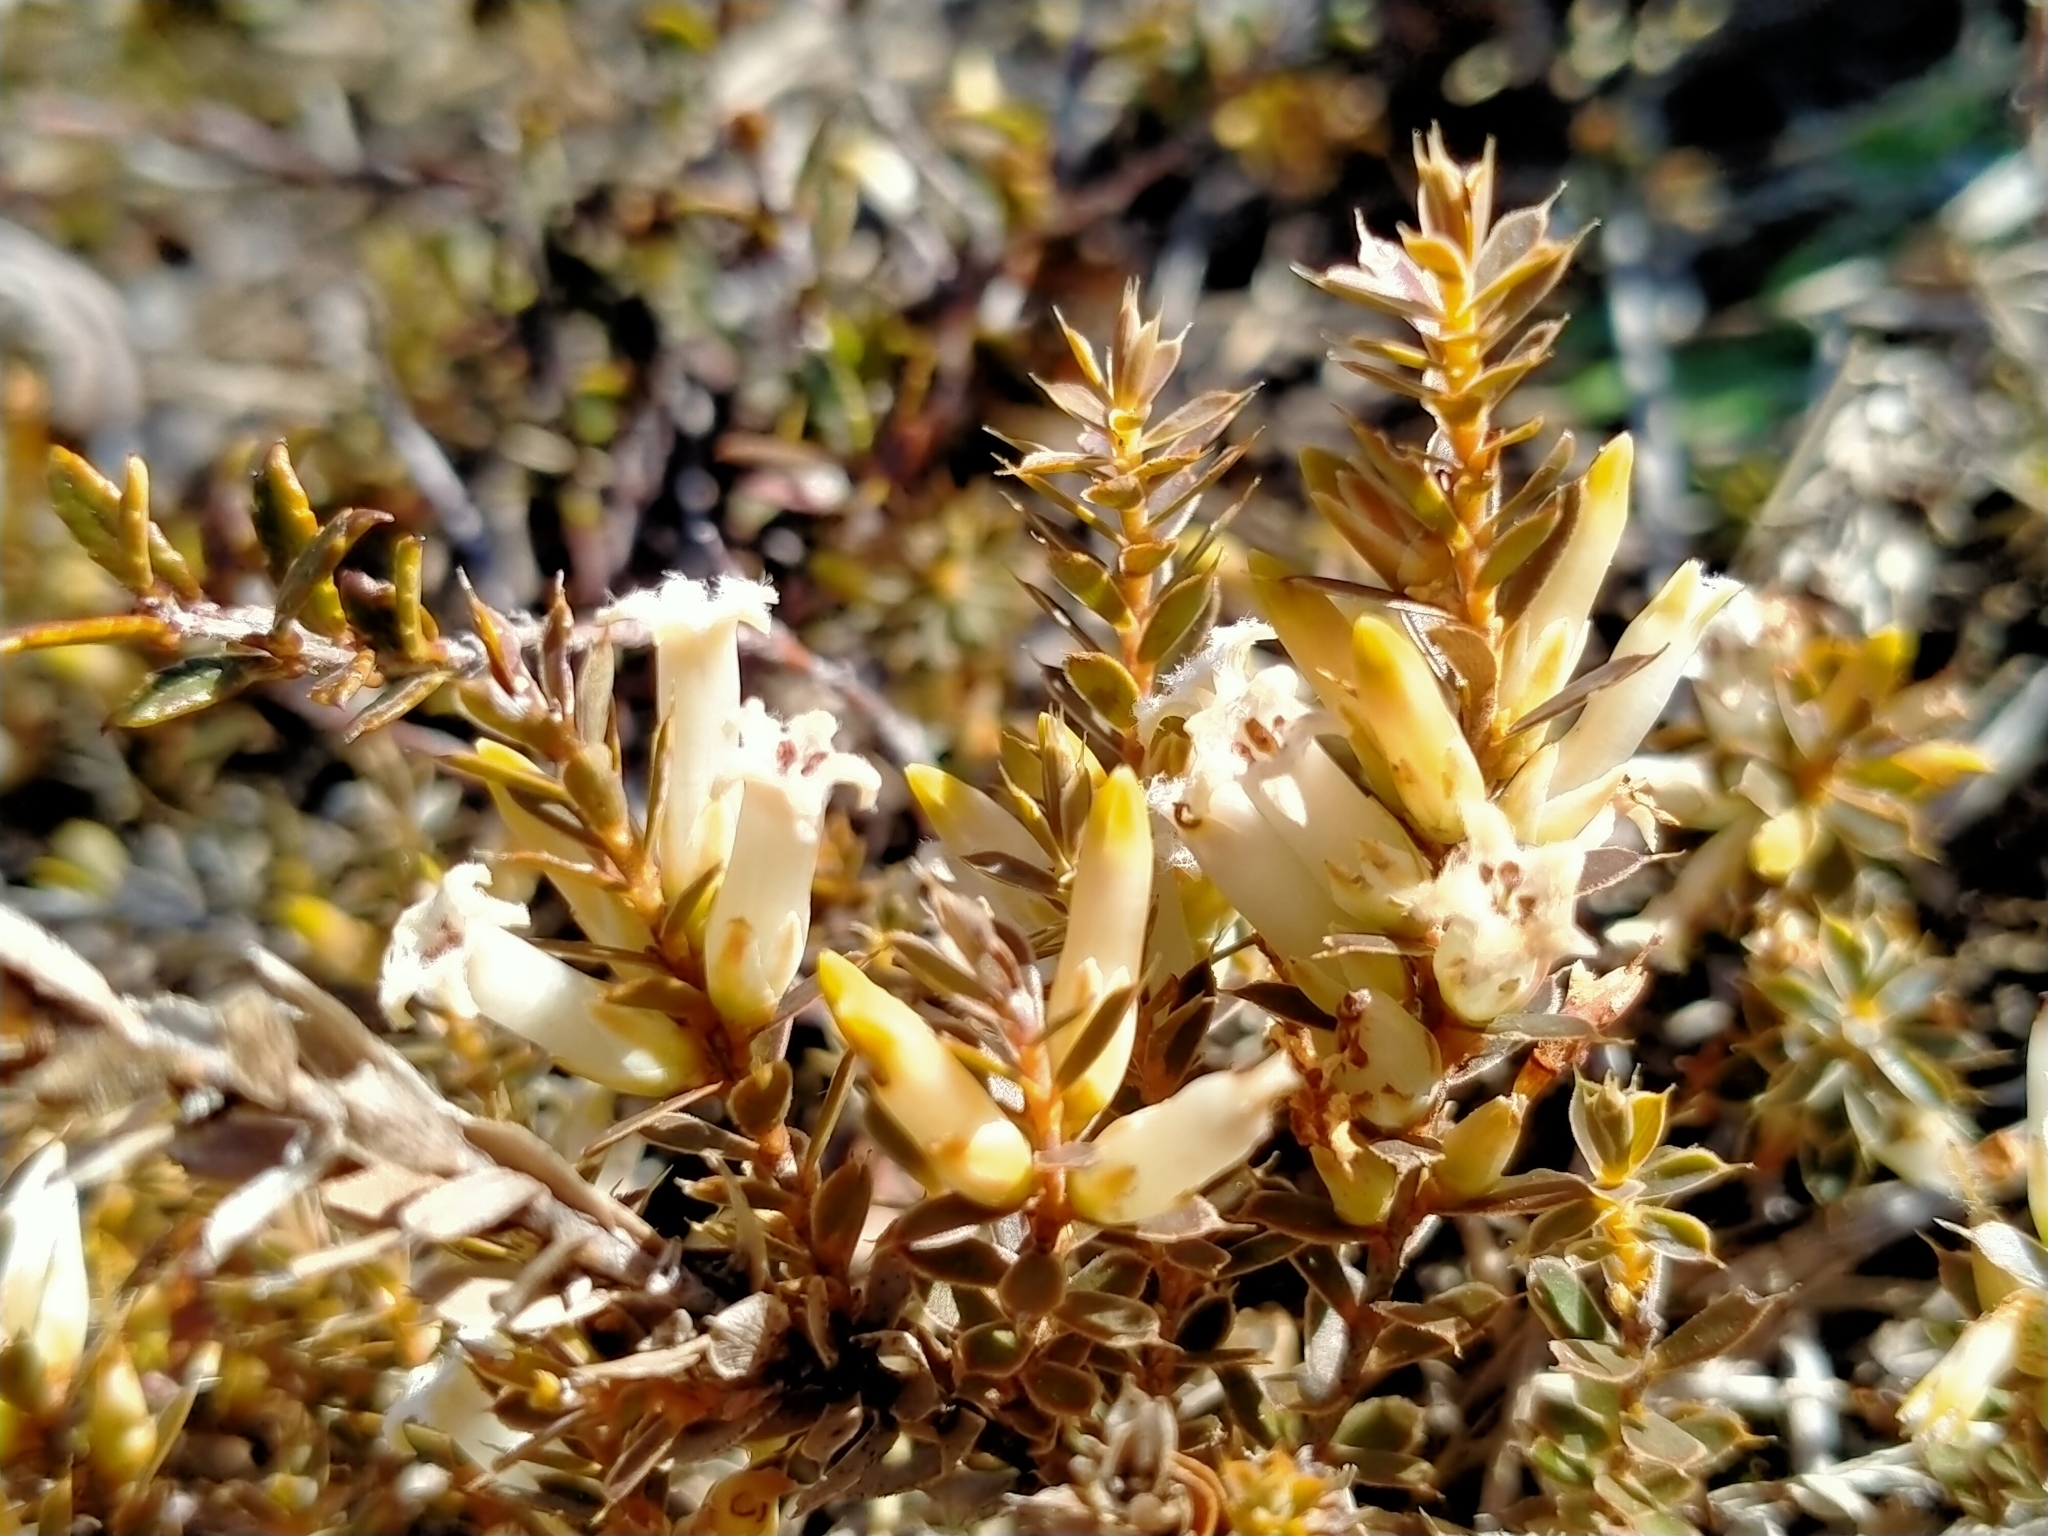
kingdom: Plantae
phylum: Tracheophyta
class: Magnoliopsida
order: Ericales
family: Ericaceae
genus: Styphelia
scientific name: Styphelia nesophila
